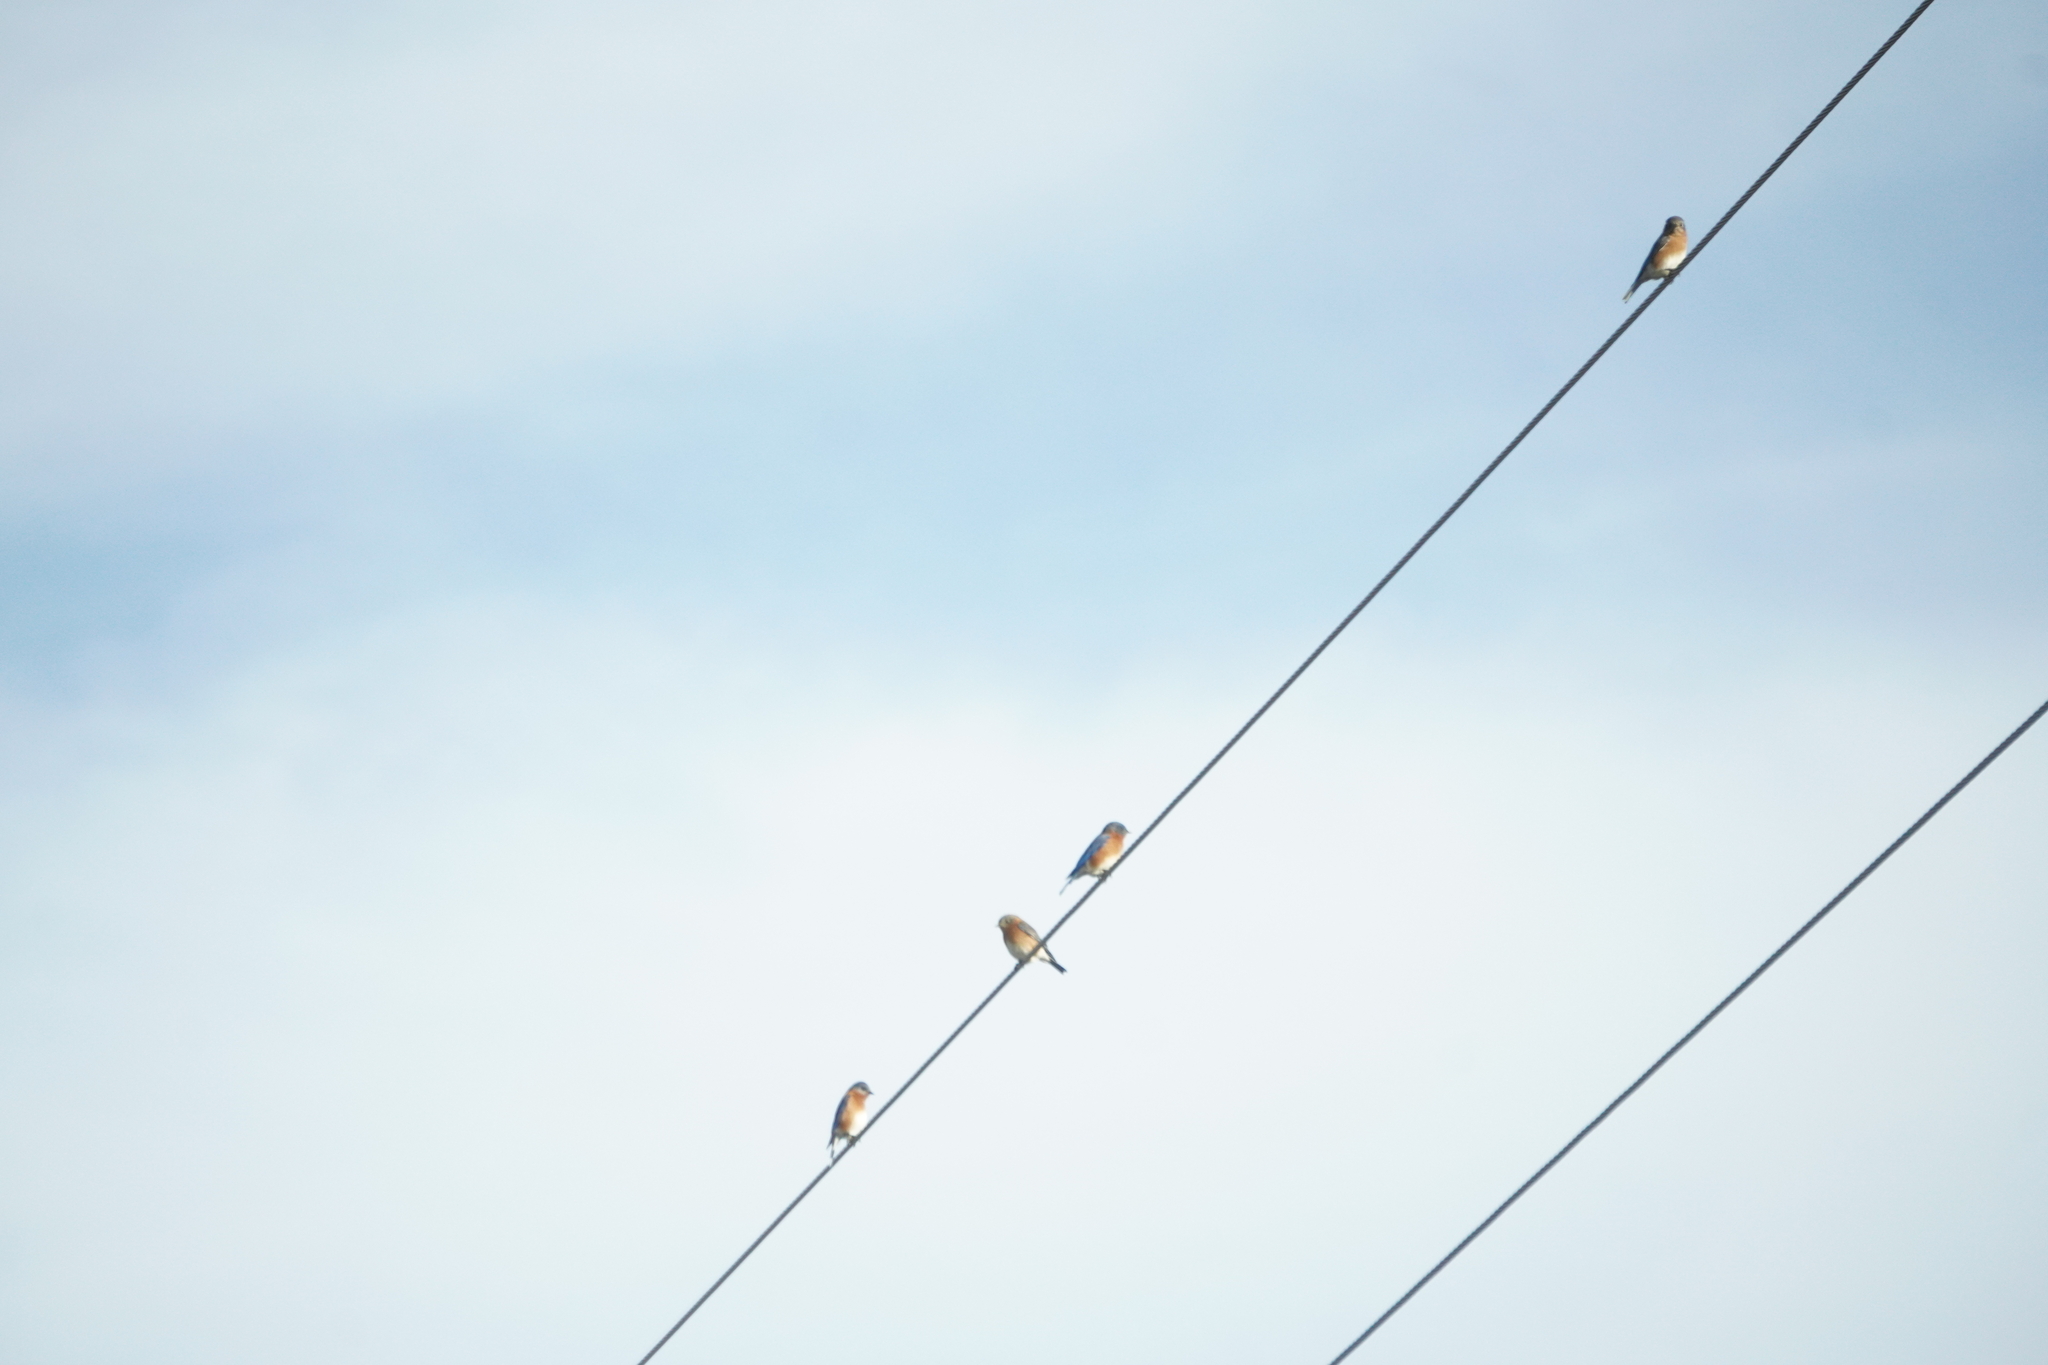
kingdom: Animalia
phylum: Chordata
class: Aves
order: Passeriformes
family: Turdidae
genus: Sialia
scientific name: Sialia sialis
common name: Eastern bluebird
